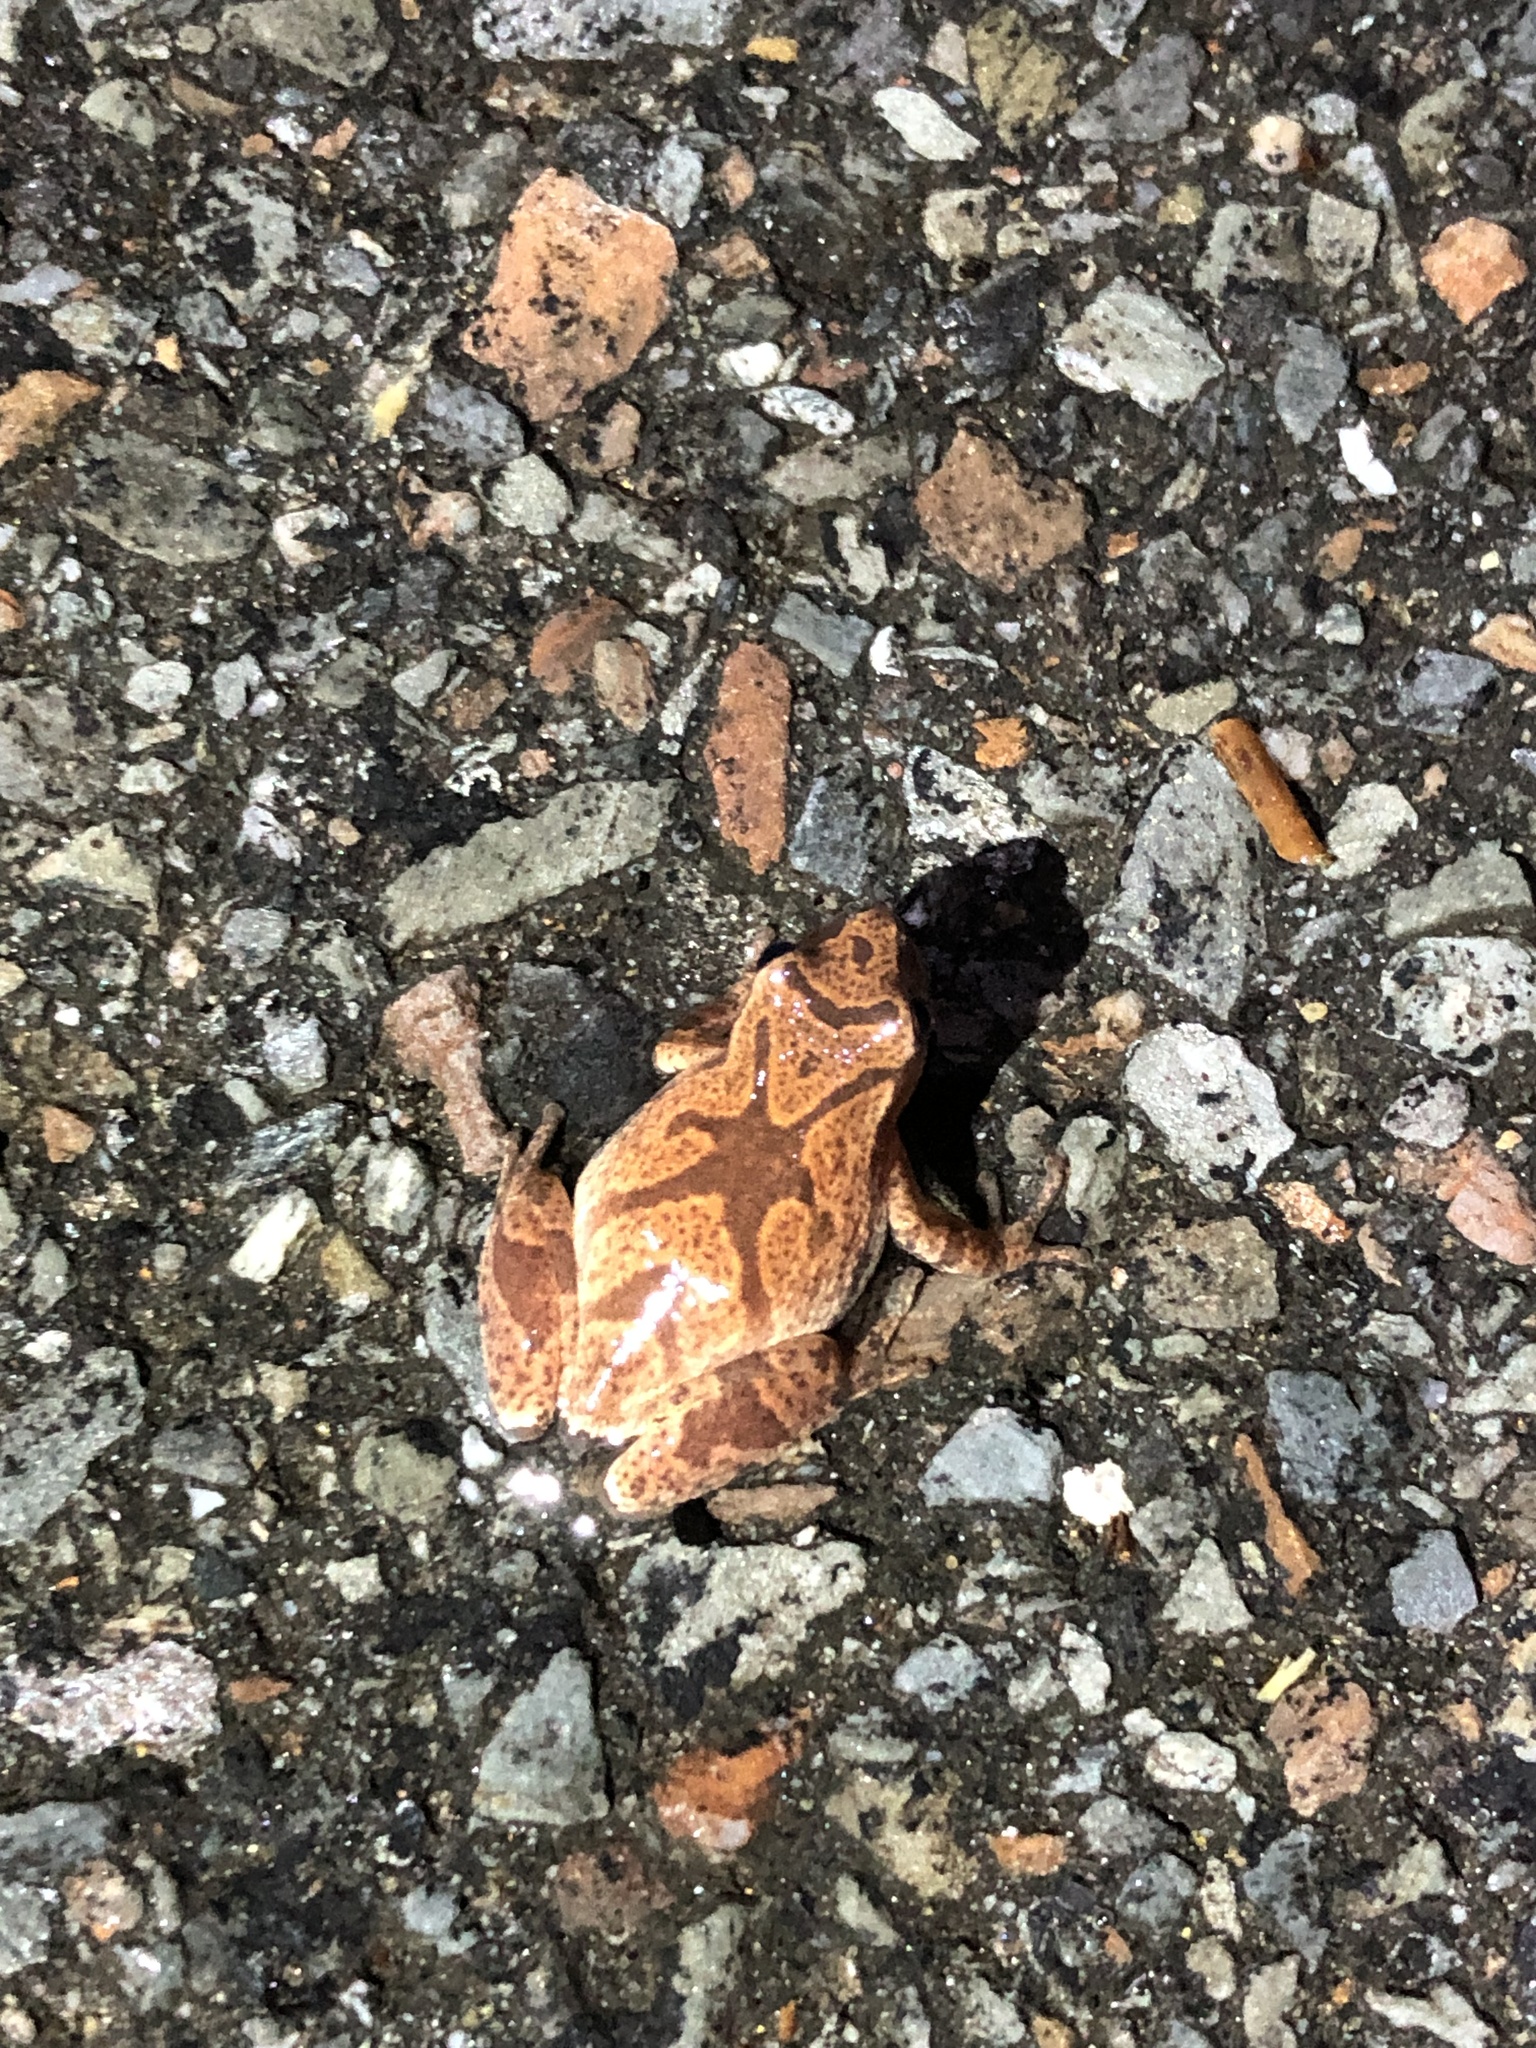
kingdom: Animalia
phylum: Chordata
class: Amphibia
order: Anura
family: Hylidae
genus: Pseudacris
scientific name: Pseudacris crucifer
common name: Spring peeper
